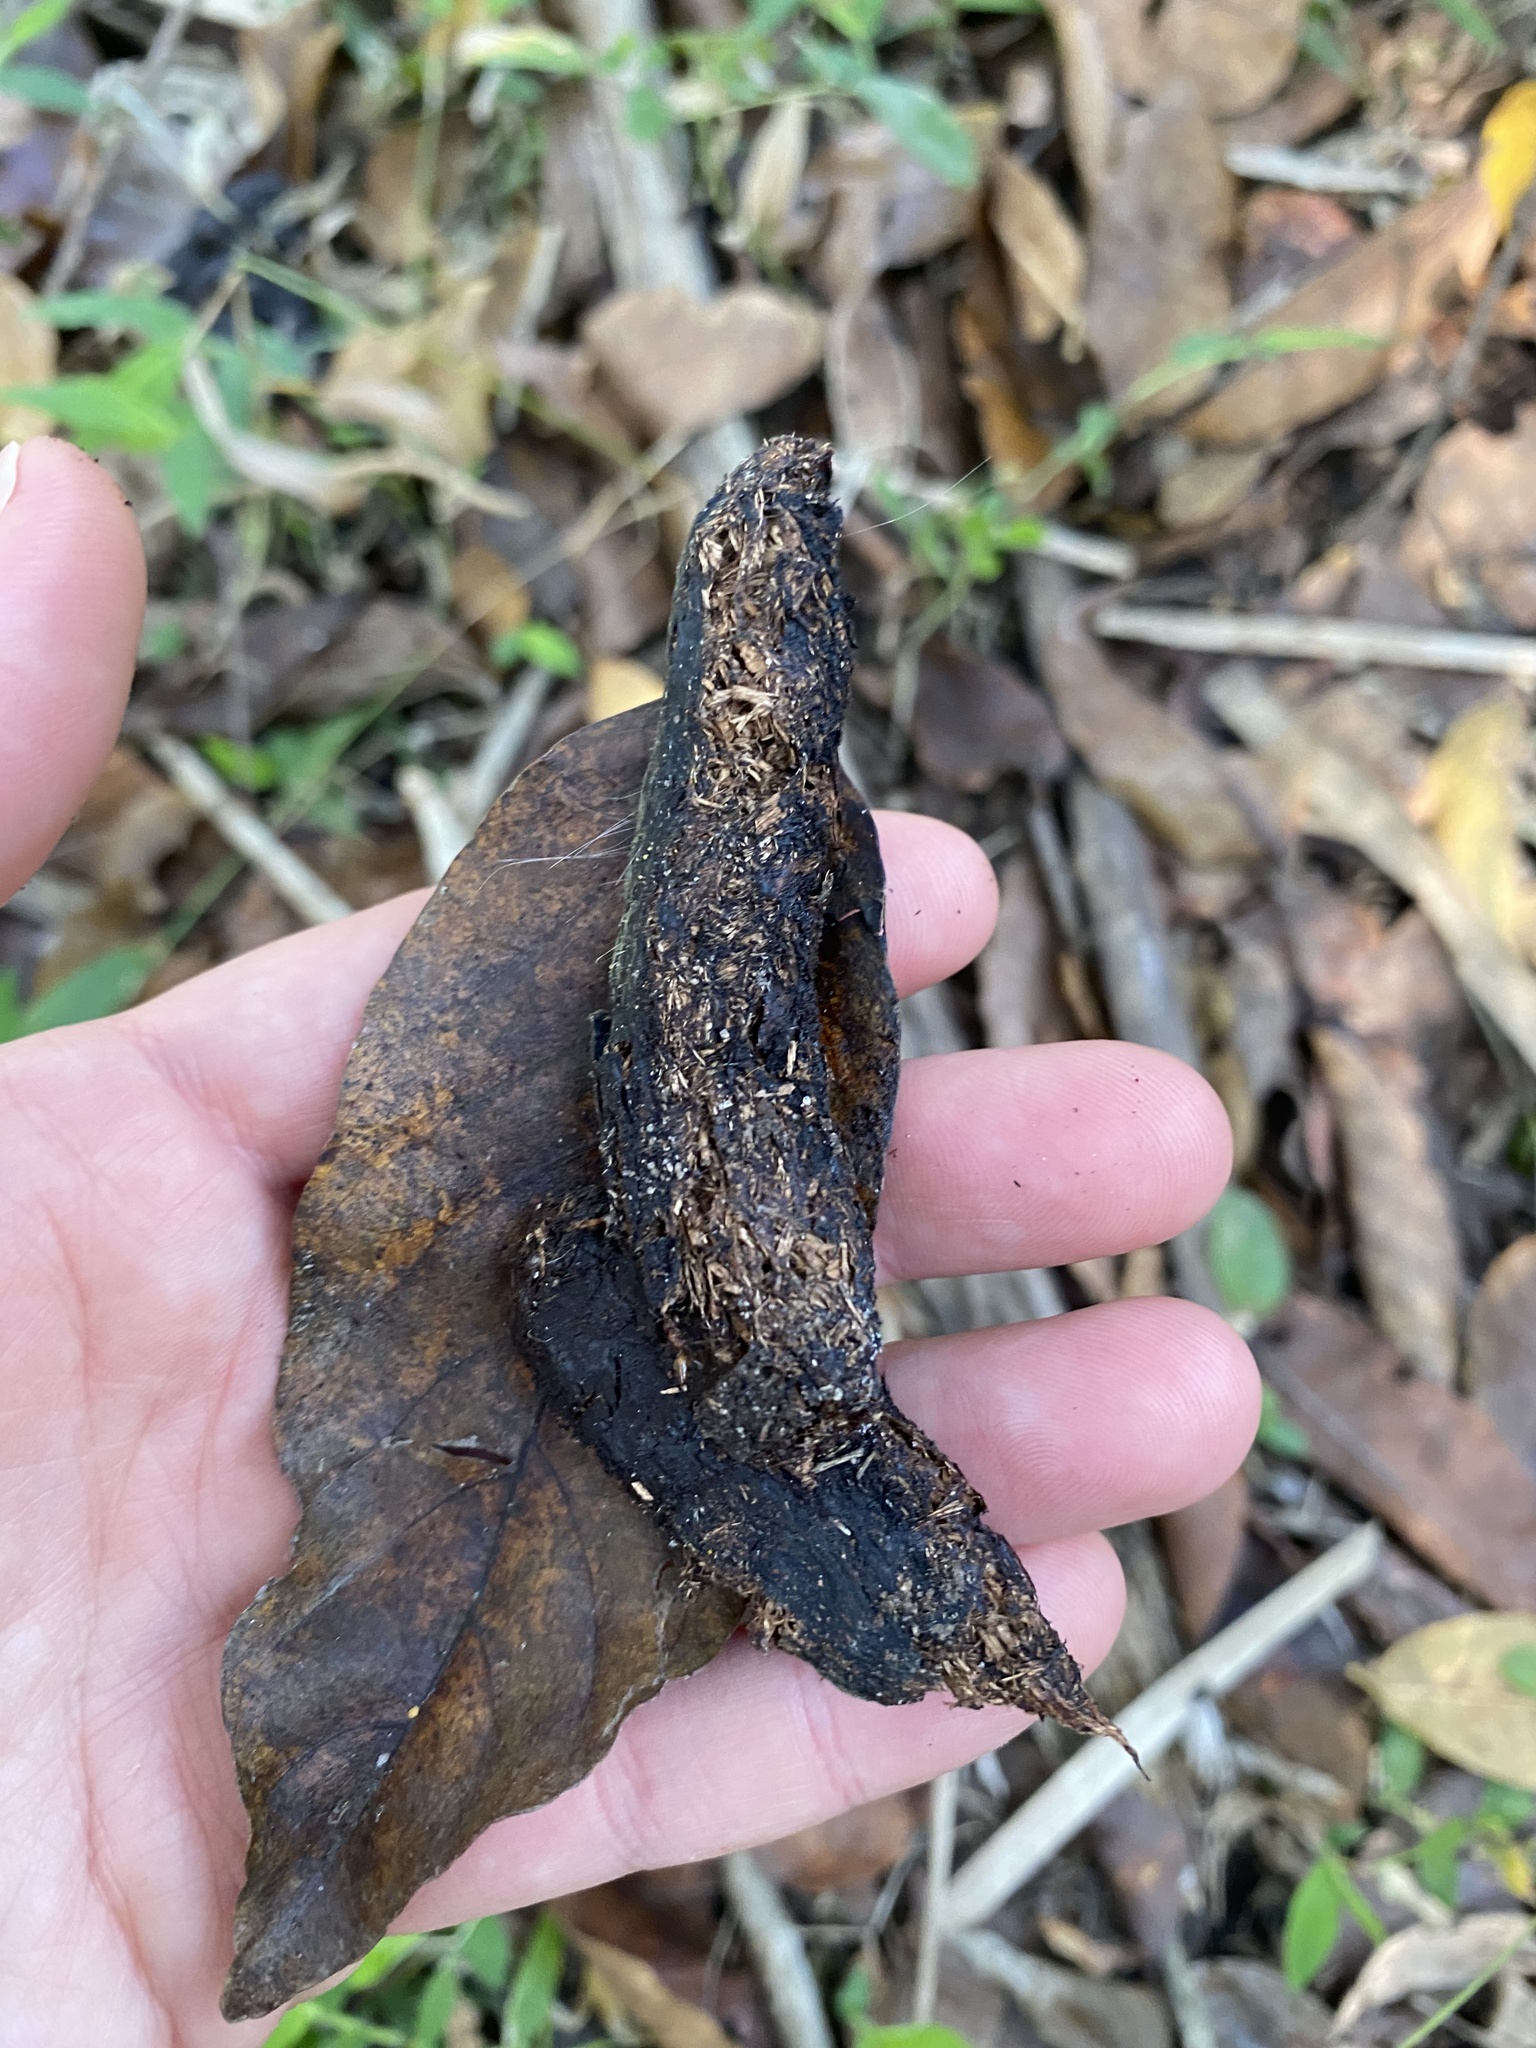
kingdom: Animalia
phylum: Chordata
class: Mammalia
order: Rodentia
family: Hystricidae
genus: Hystrix
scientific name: Hystrix africaeaustralis
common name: Cape porcupine
